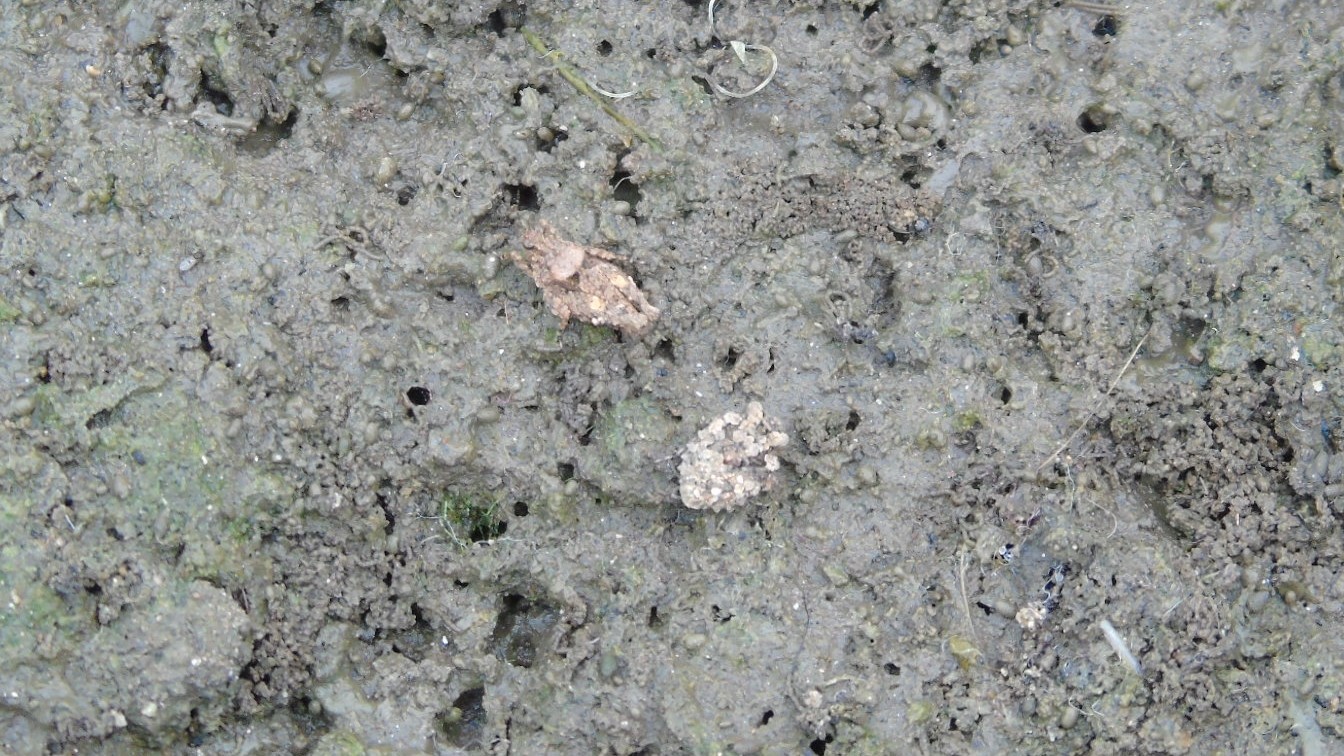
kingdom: Animalia
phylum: Arthropoda
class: Insecta
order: Hemiptera
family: Gelastocoridae
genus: Gelastocoris
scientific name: Gelastocoris
